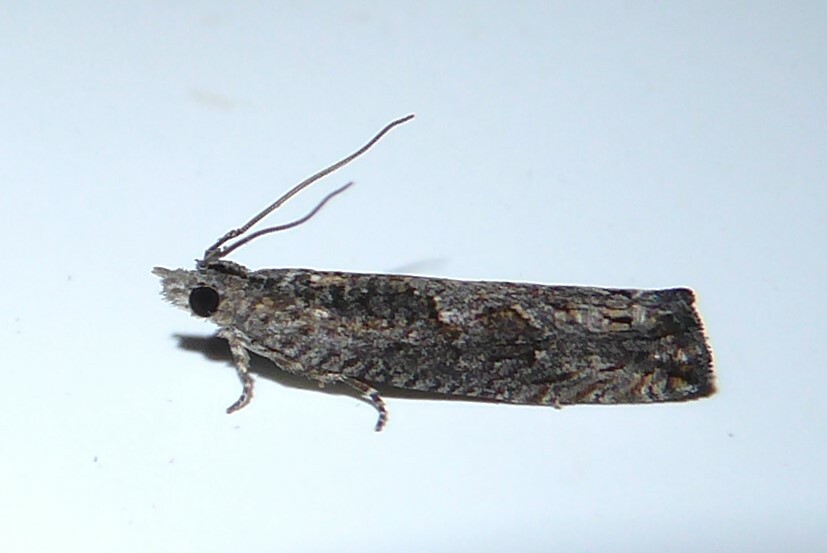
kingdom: Animalia
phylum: Arthropoda
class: Insecta
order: Lepidoptera
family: Tortricidae
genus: Strepsicrates
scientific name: Strepsicrates macropetana
